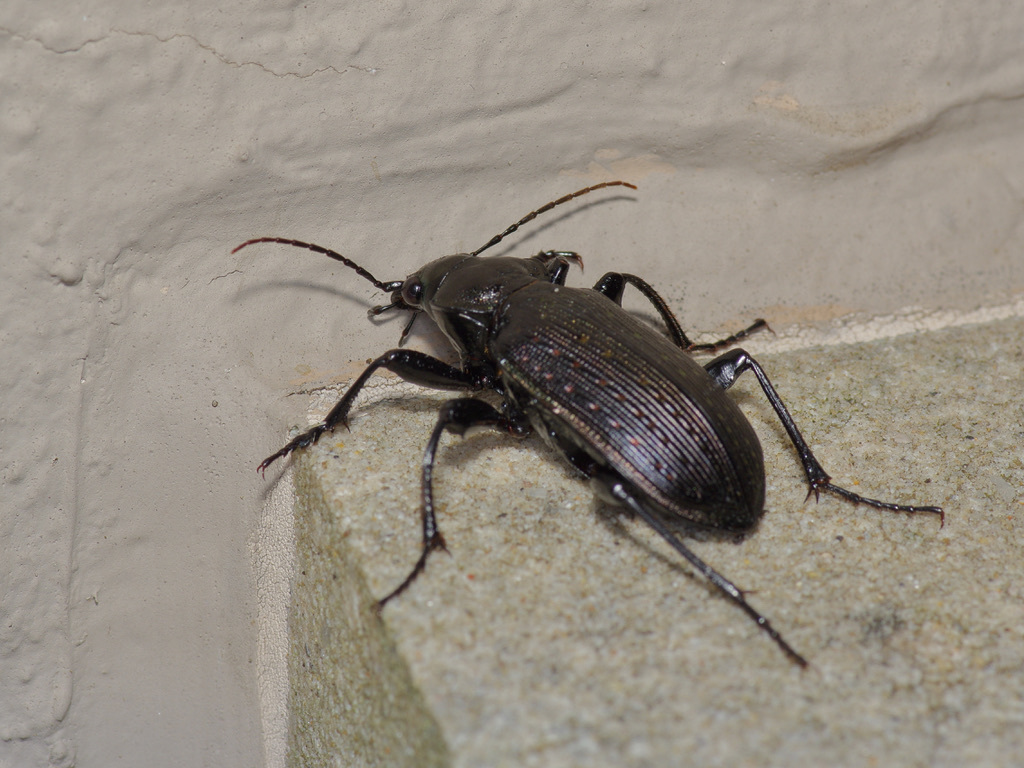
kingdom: Animalia
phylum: Arthropoda
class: Insecta
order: Coleoptera
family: Carabidae
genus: Calosoma
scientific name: Calosoma sayi
